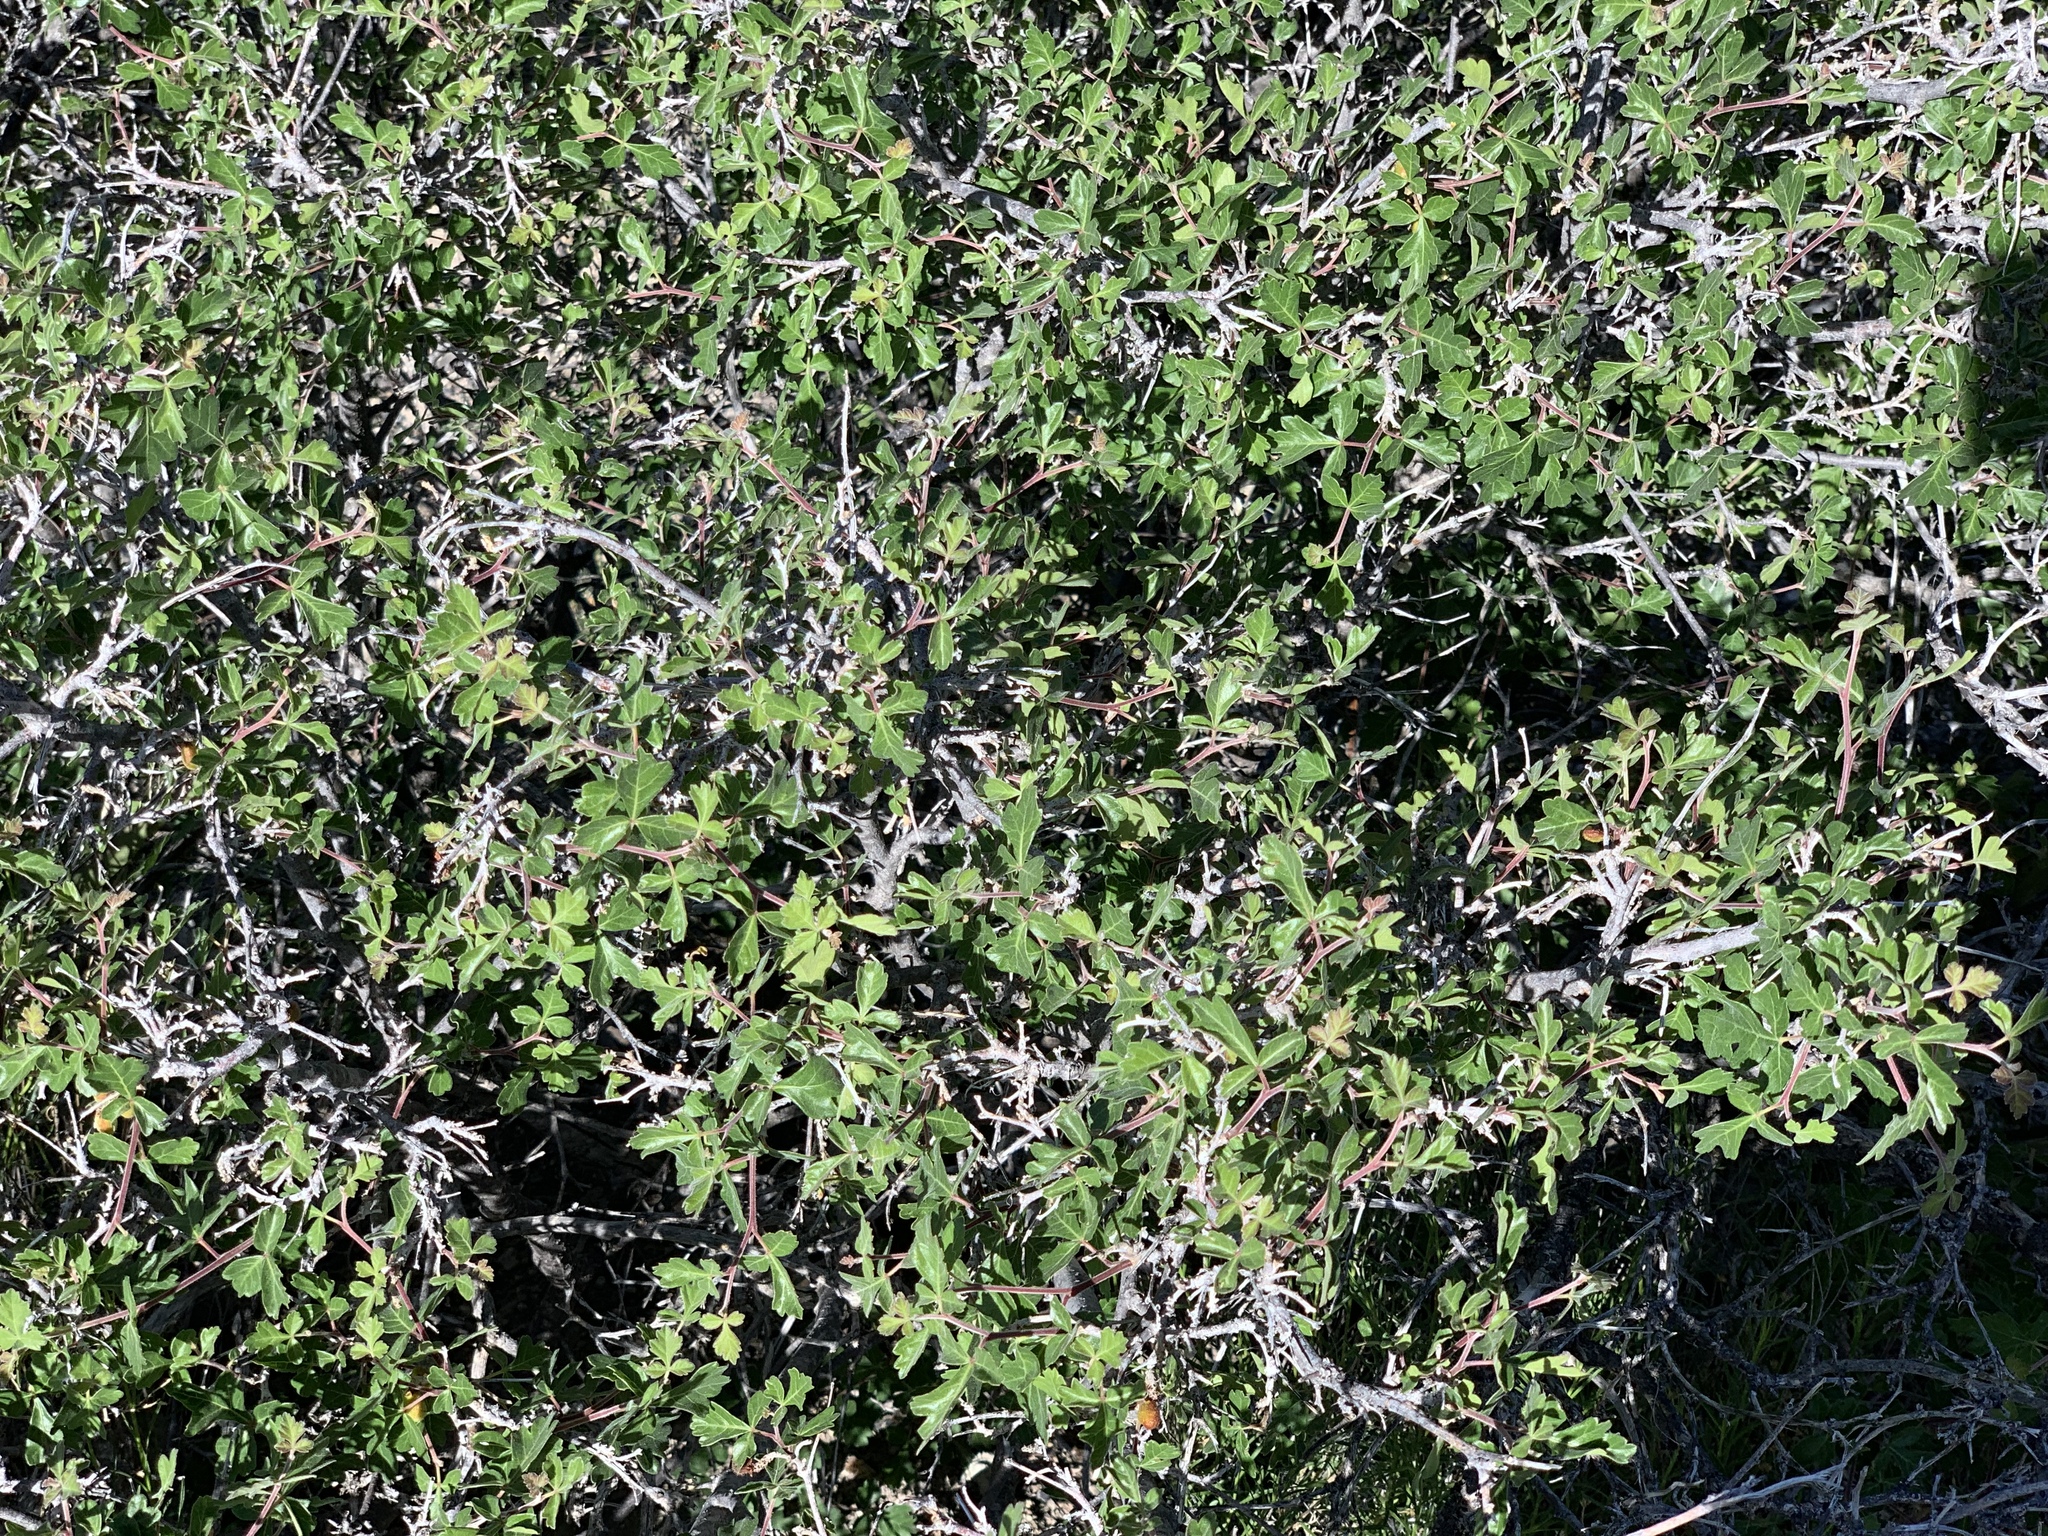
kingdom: Plantae
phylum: Tracheophyta
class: Magnoliopsida
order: Sapindales
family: Anacardiaceae
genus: Rhus
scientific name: Rhus aromatica
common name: Aromatic sumac
